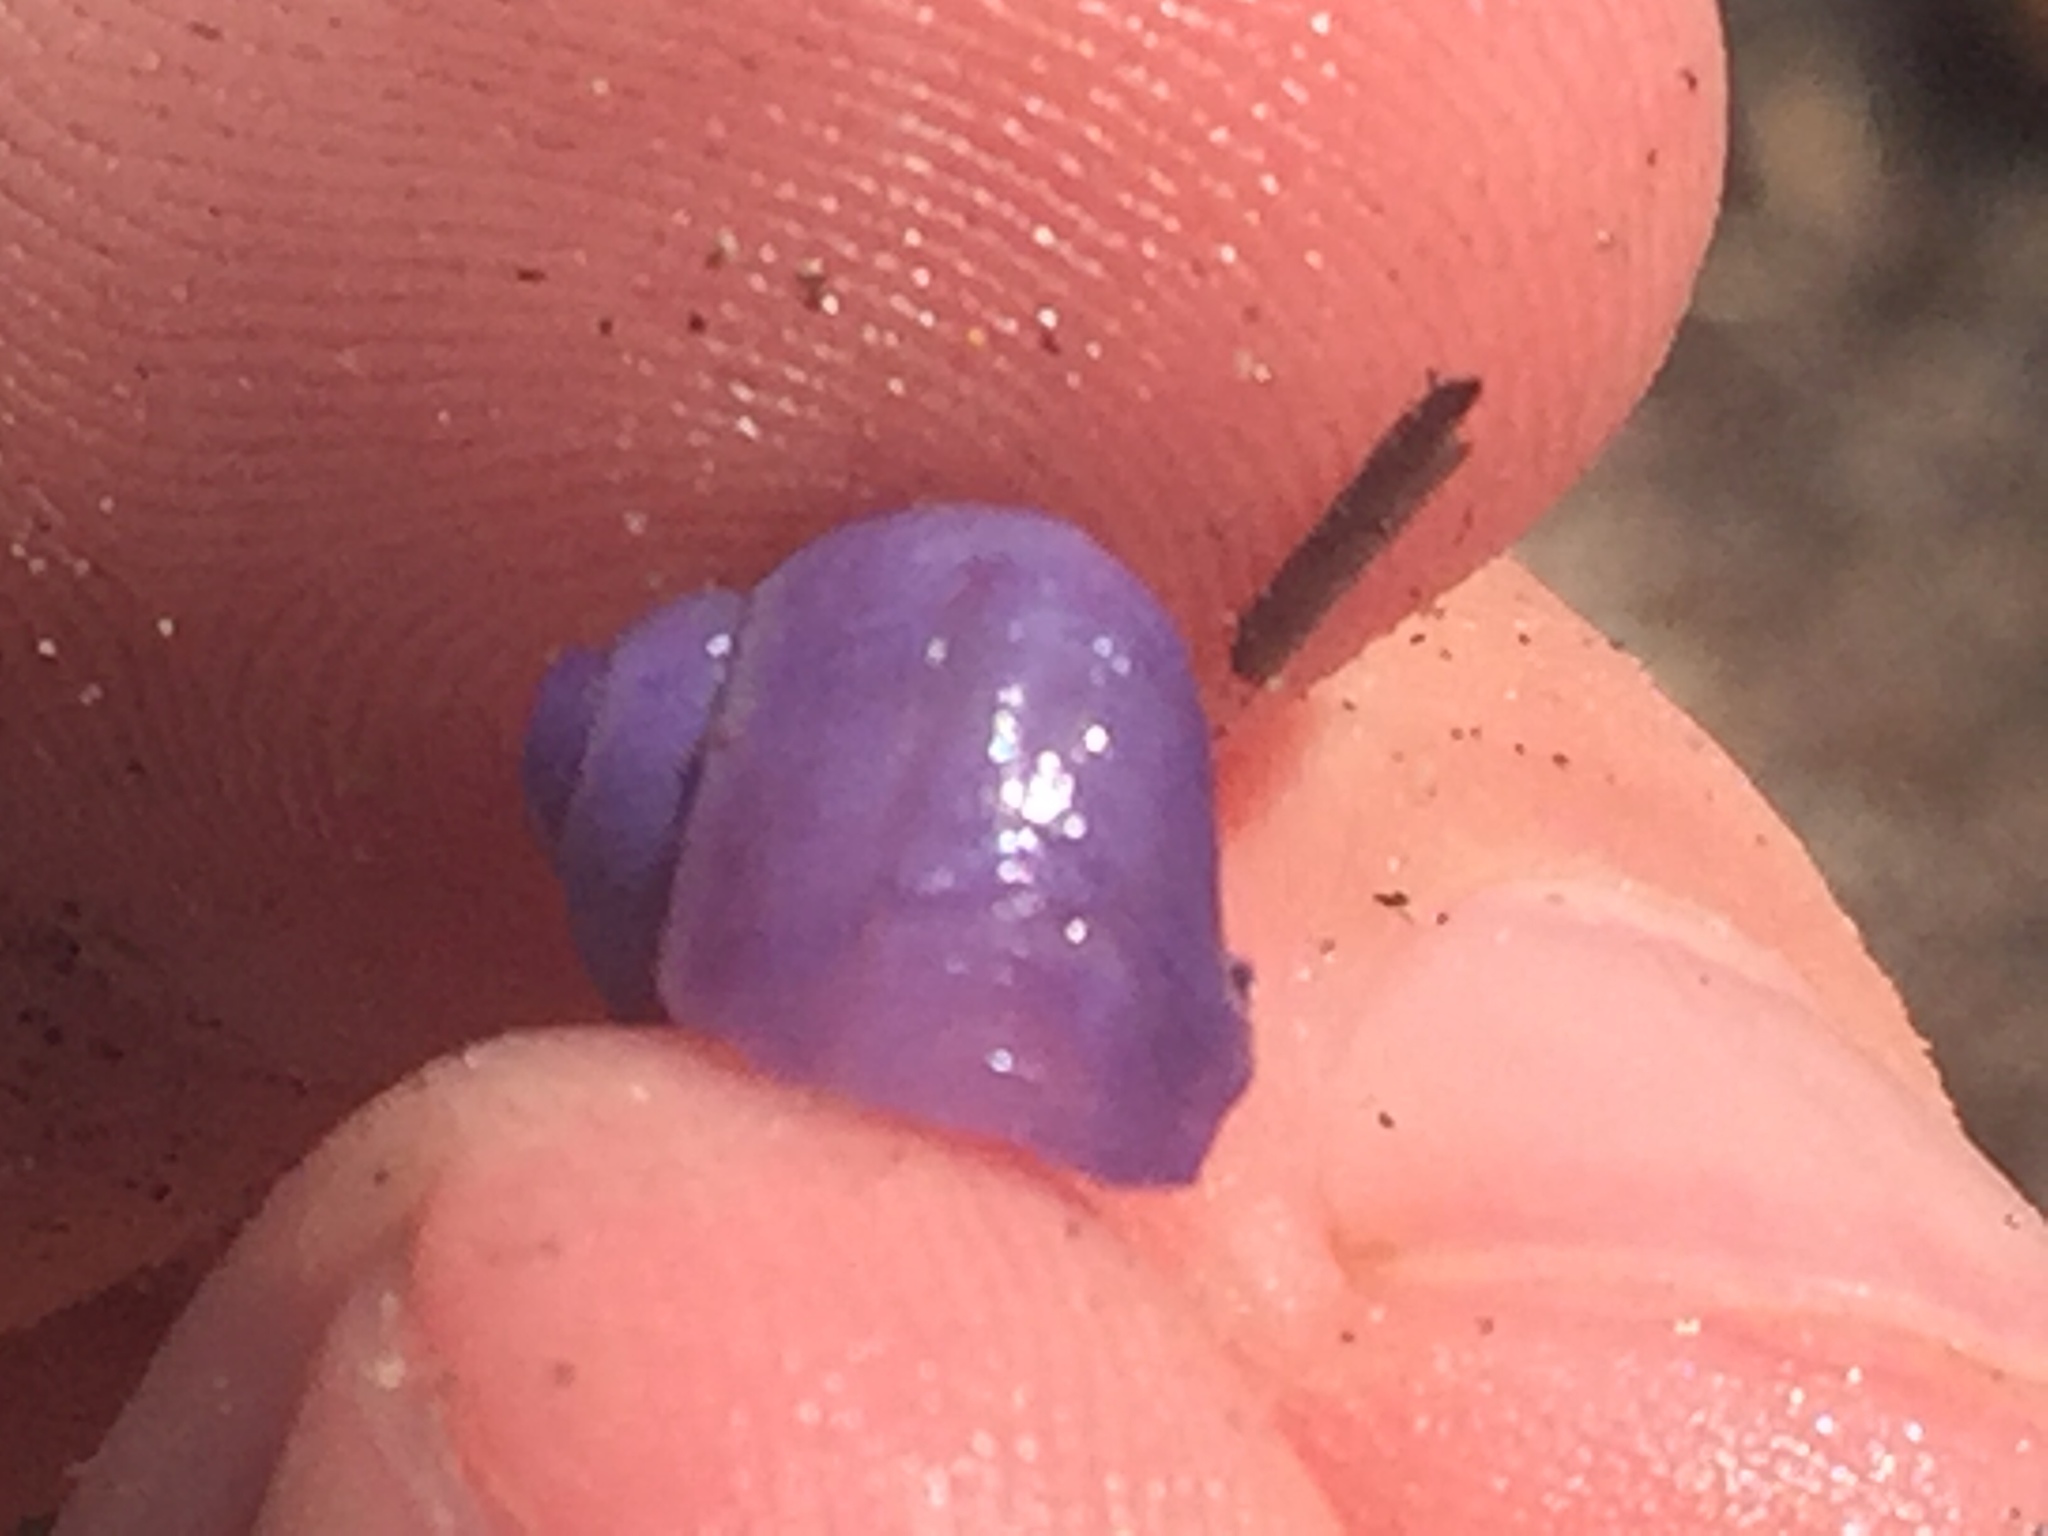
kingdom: Animalia
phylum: Mollusca
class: Gastropoda
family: Epitoniidae
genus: Janthina
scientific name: Janthina exigua
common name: Dwarf janthina
